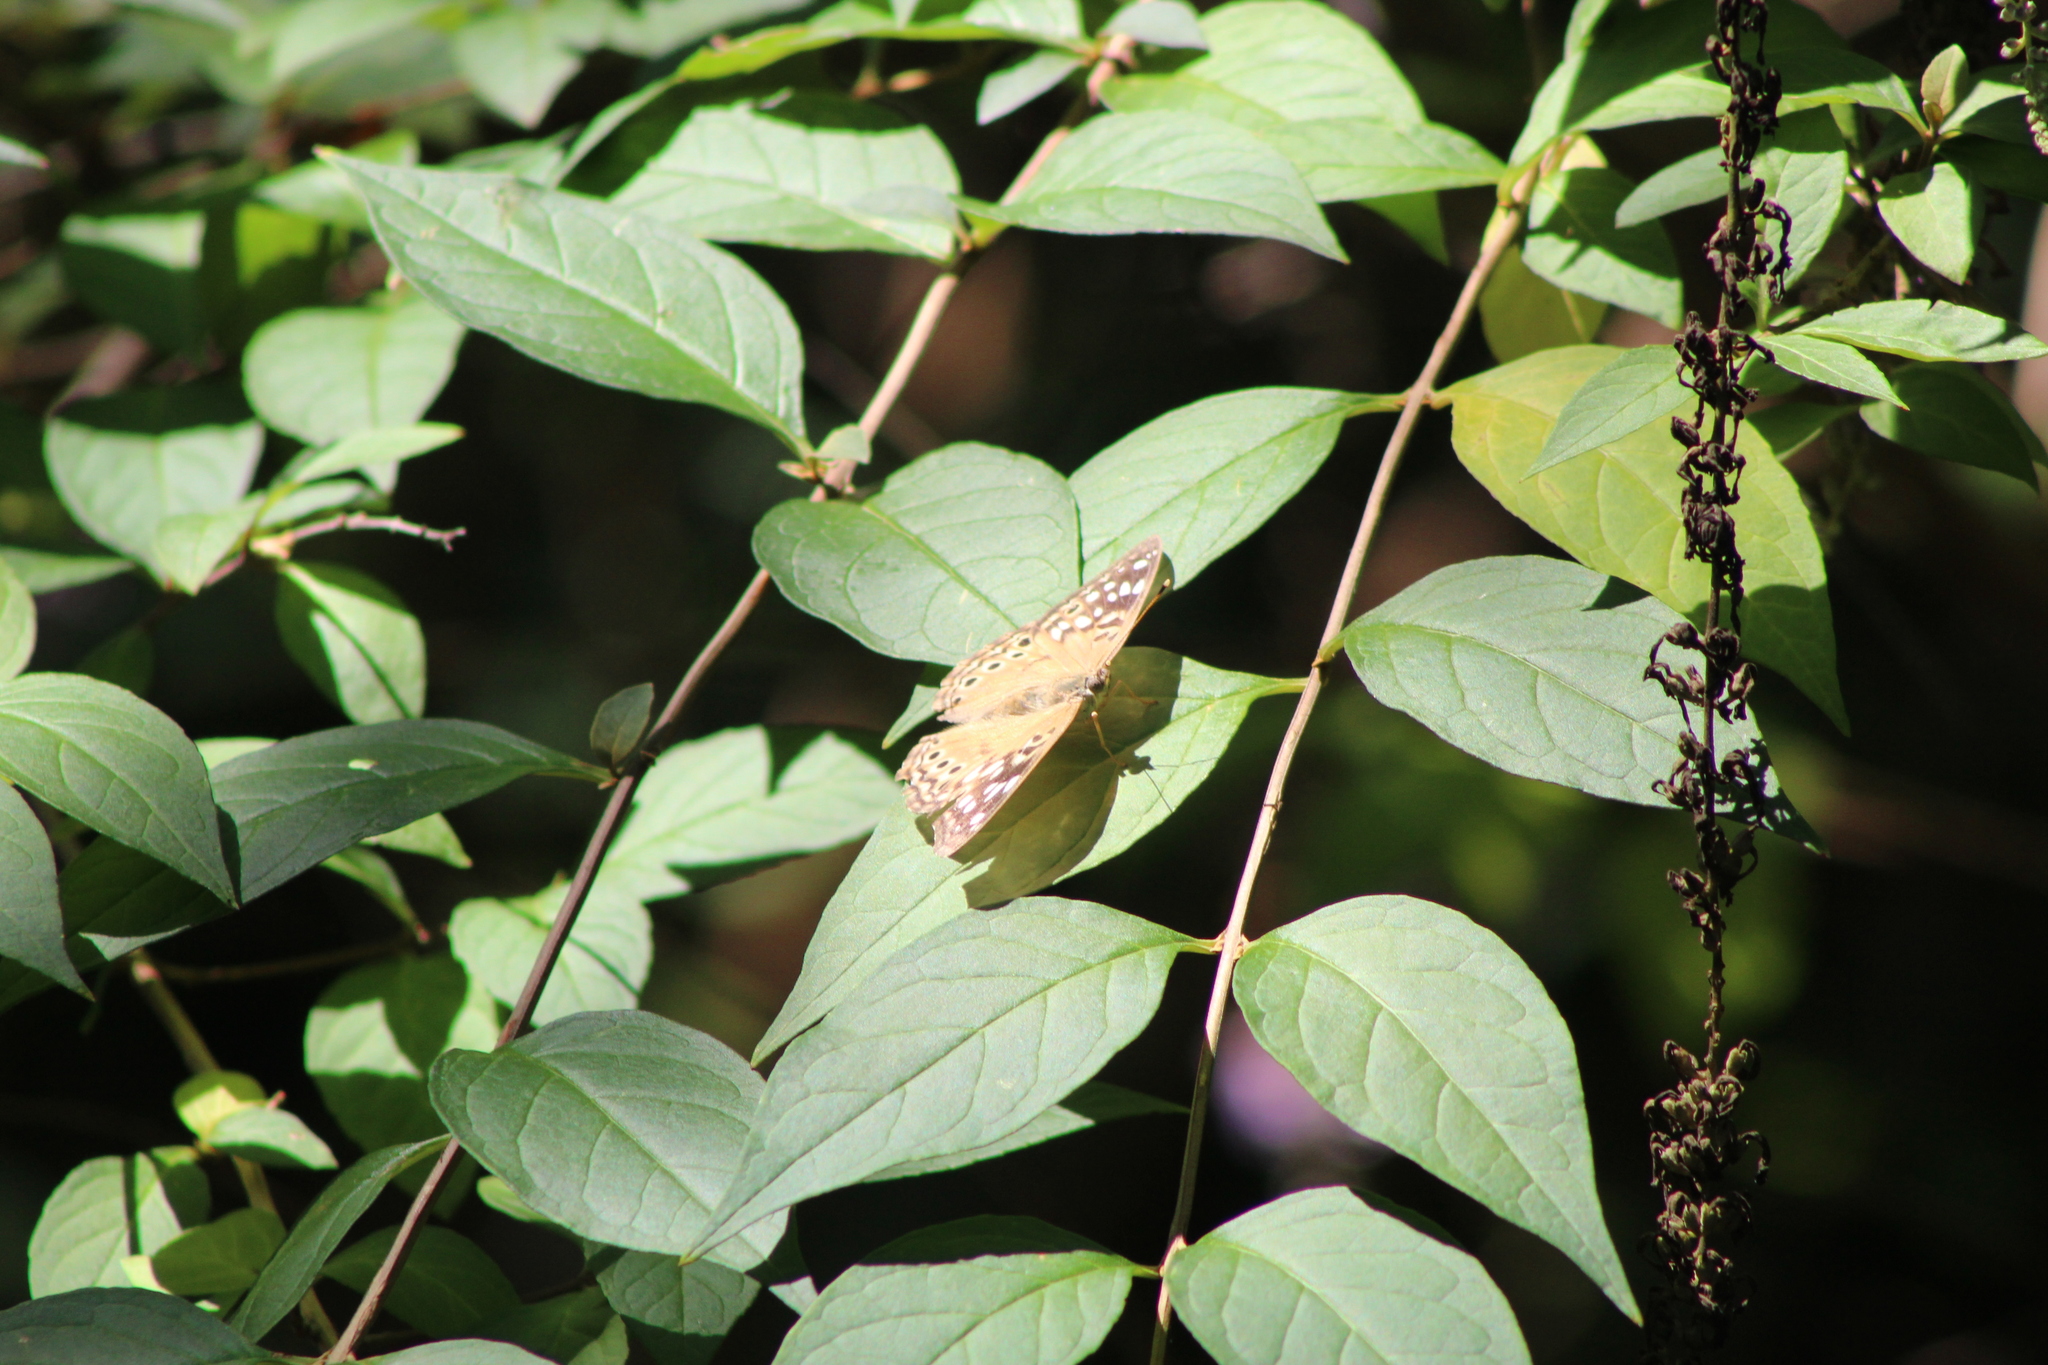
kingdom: Animalia
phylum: Arthropoda
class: Insecta
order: Lepidoptera
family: Nymphalidae
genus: Asterocampa
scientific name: Asterocampa celtis
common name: Hackberry emperor
